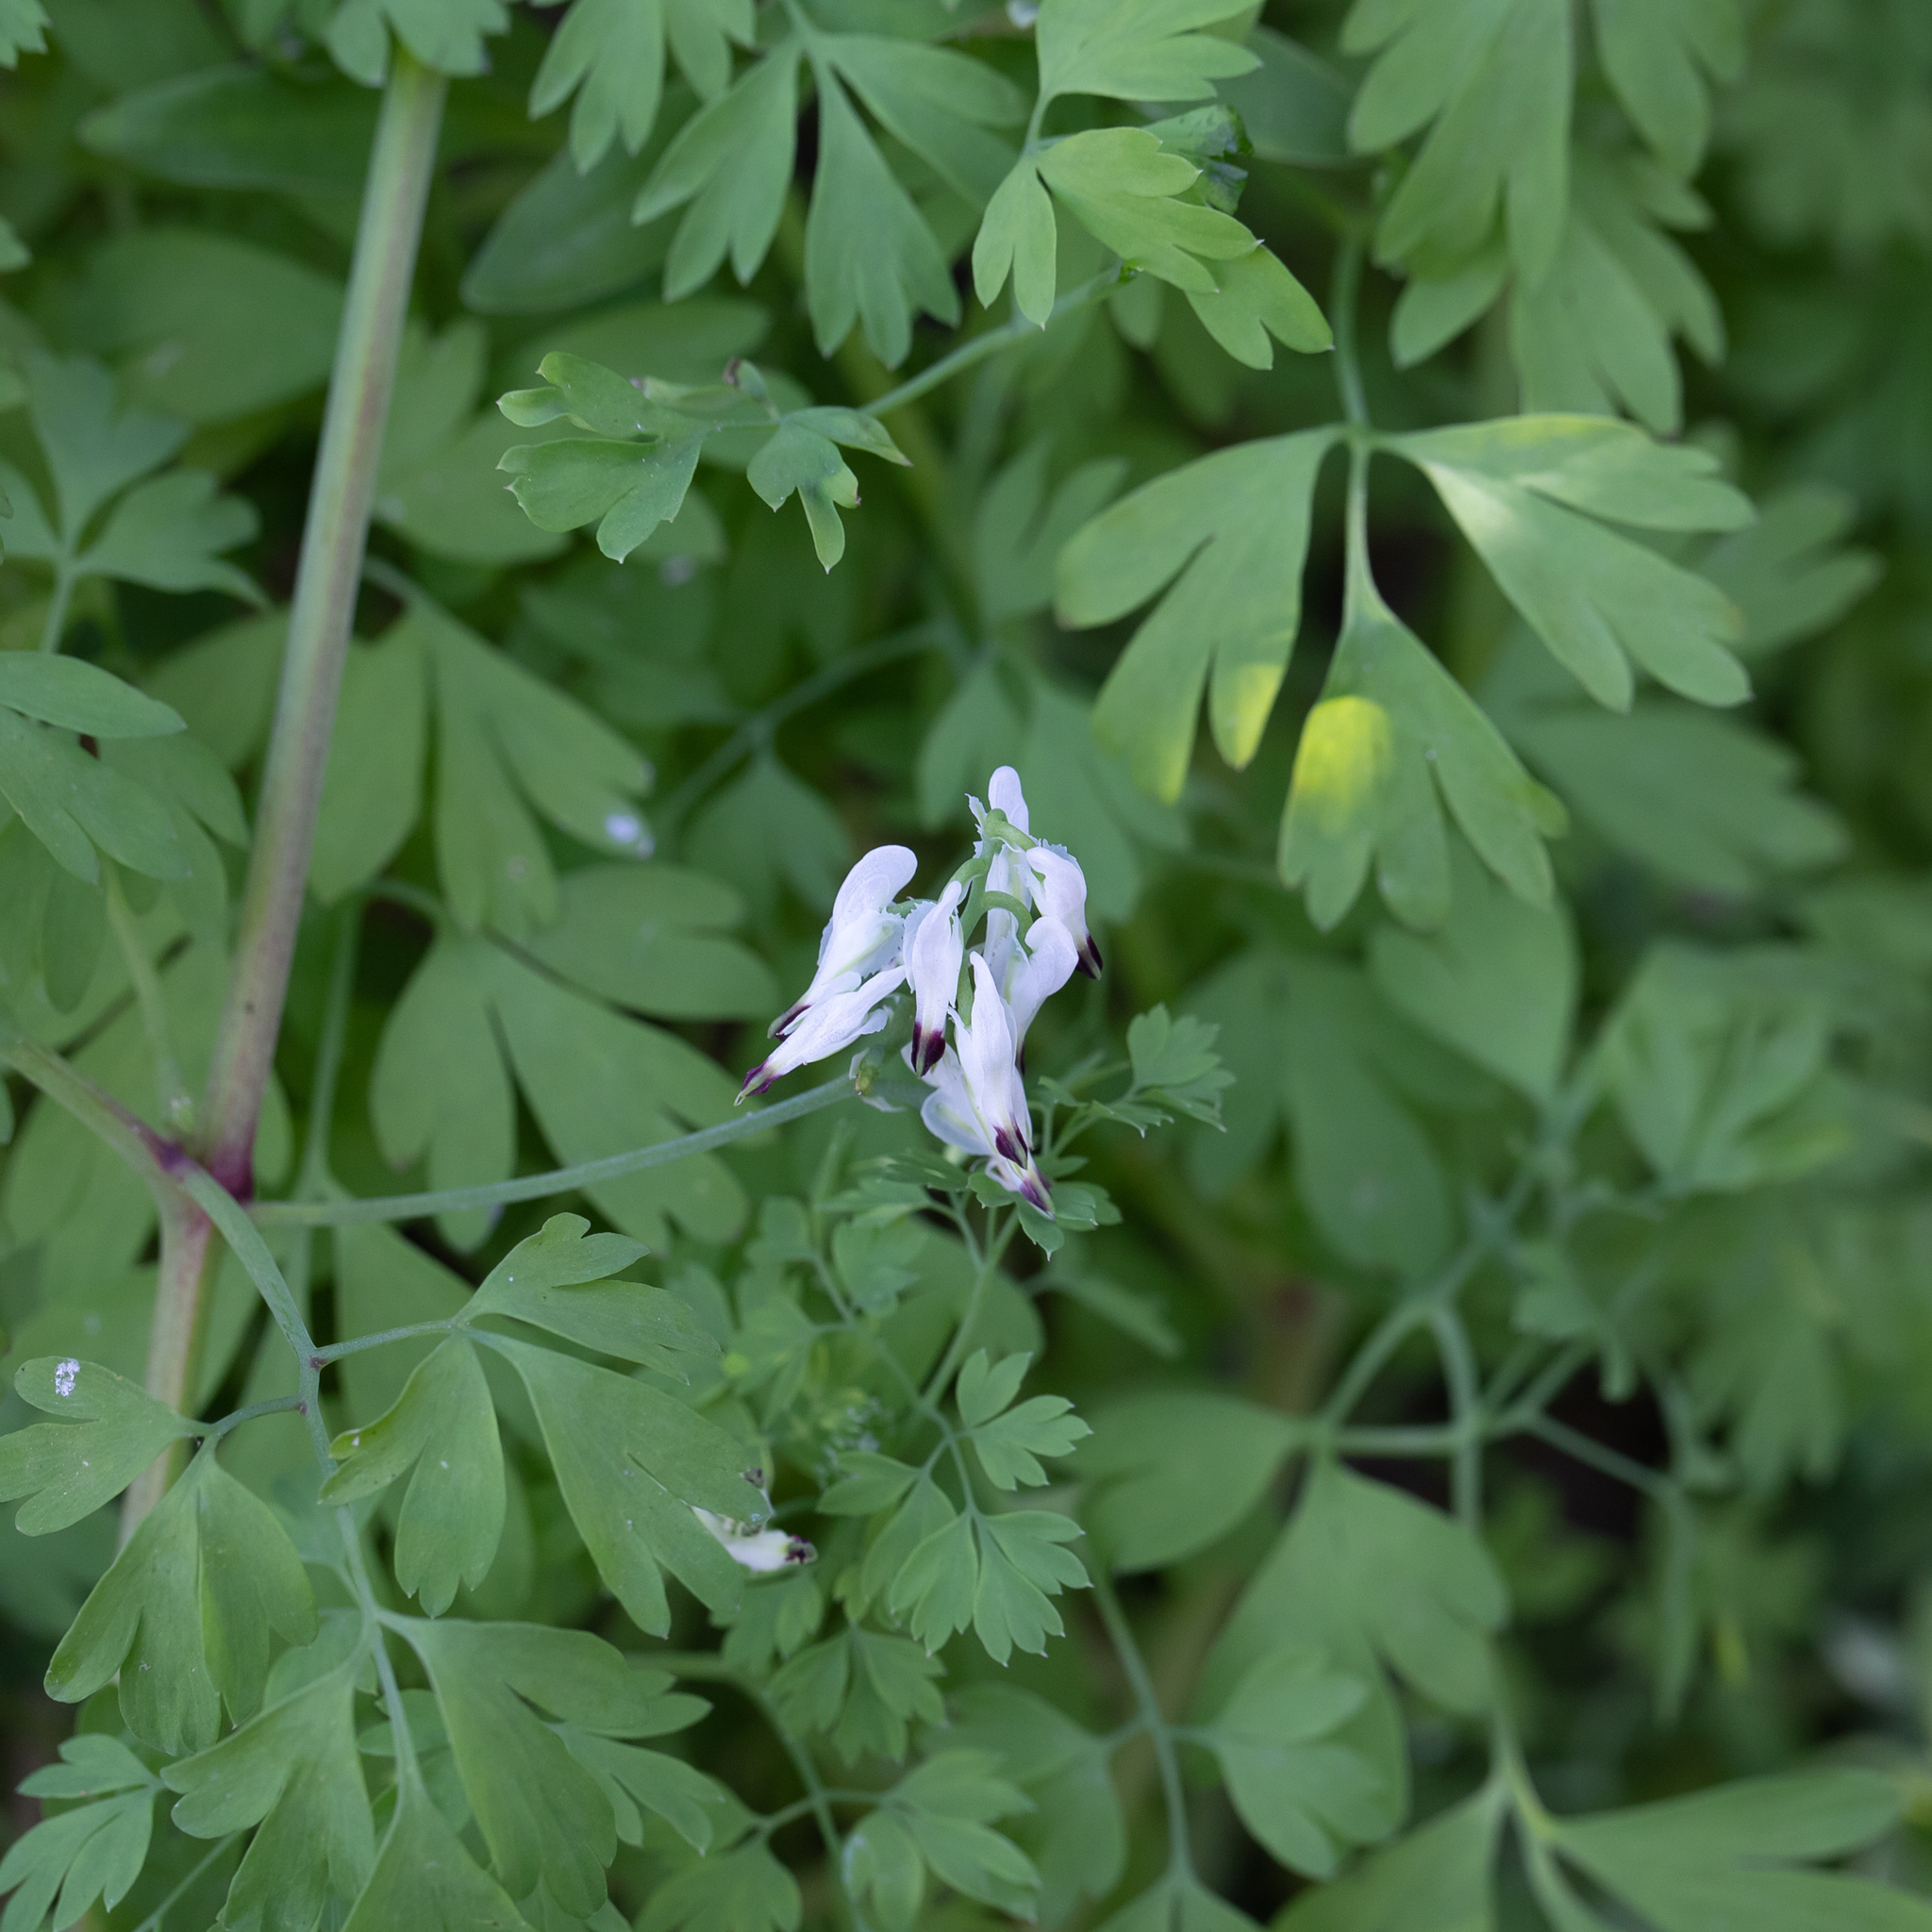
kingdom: Plantae
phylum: Tracheophyta
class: Magnoliopsida
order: Ranunculales
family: Papaveraceae
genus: Fumaria
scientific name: Fumaria capreolata
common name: White ramping-fumitory
